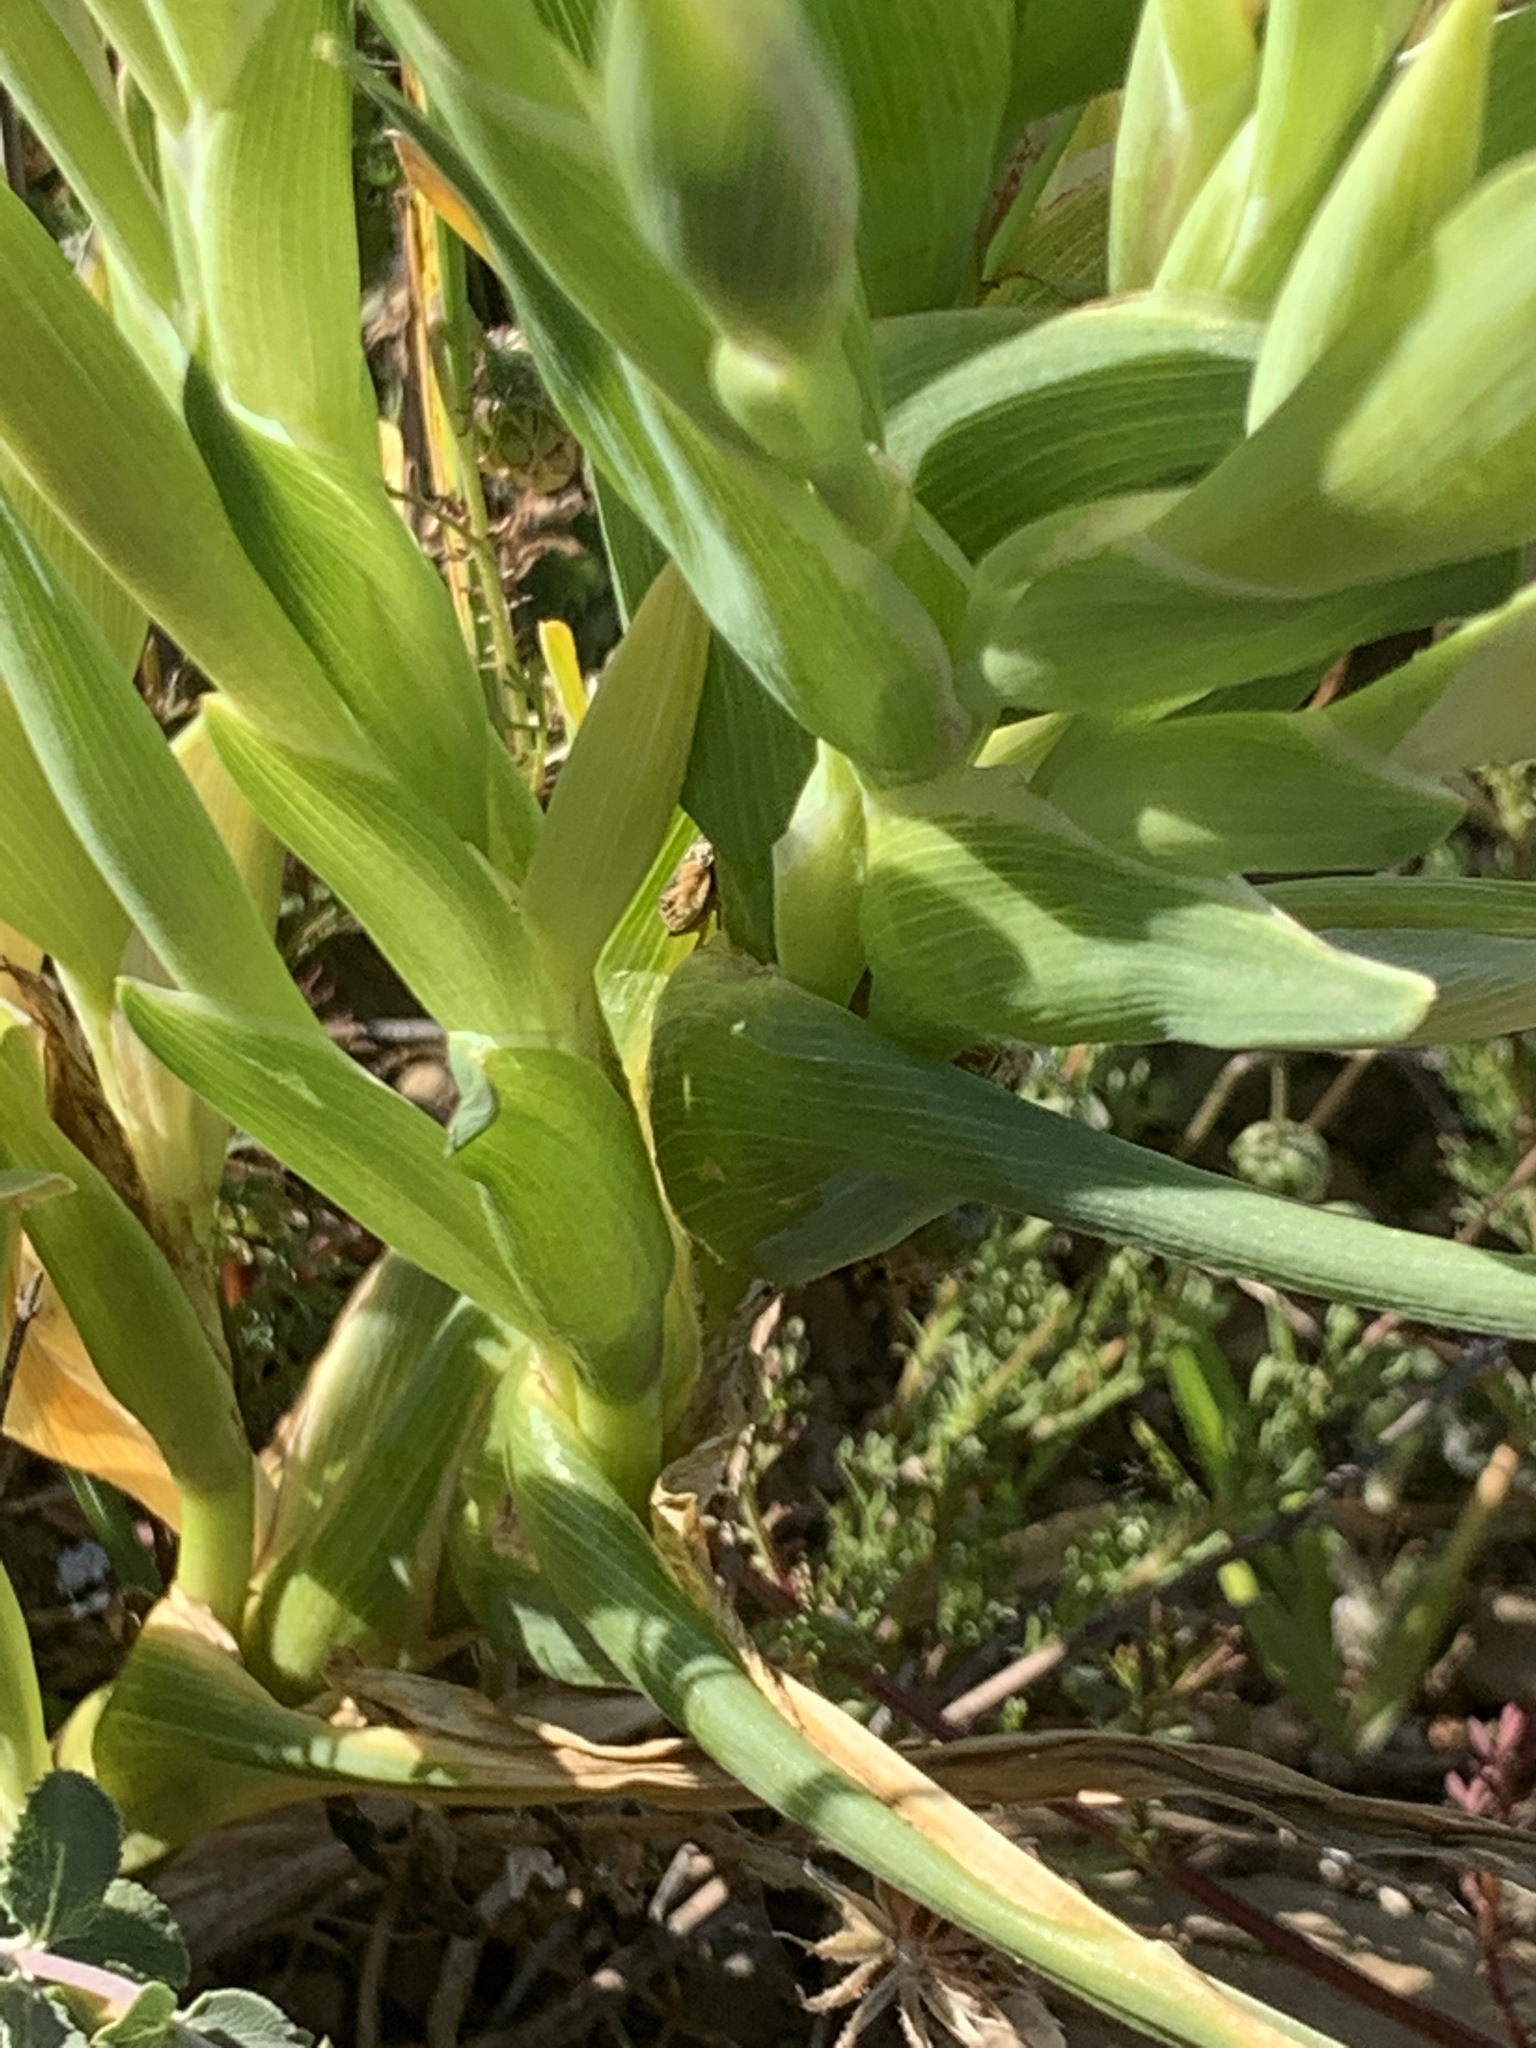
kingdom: Plantae
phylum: Tracheophyta
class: Liliopsida
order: Asparagales
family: Iridaceae
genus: Ferraria
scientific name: Ferraria crispa
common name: Black-flag
